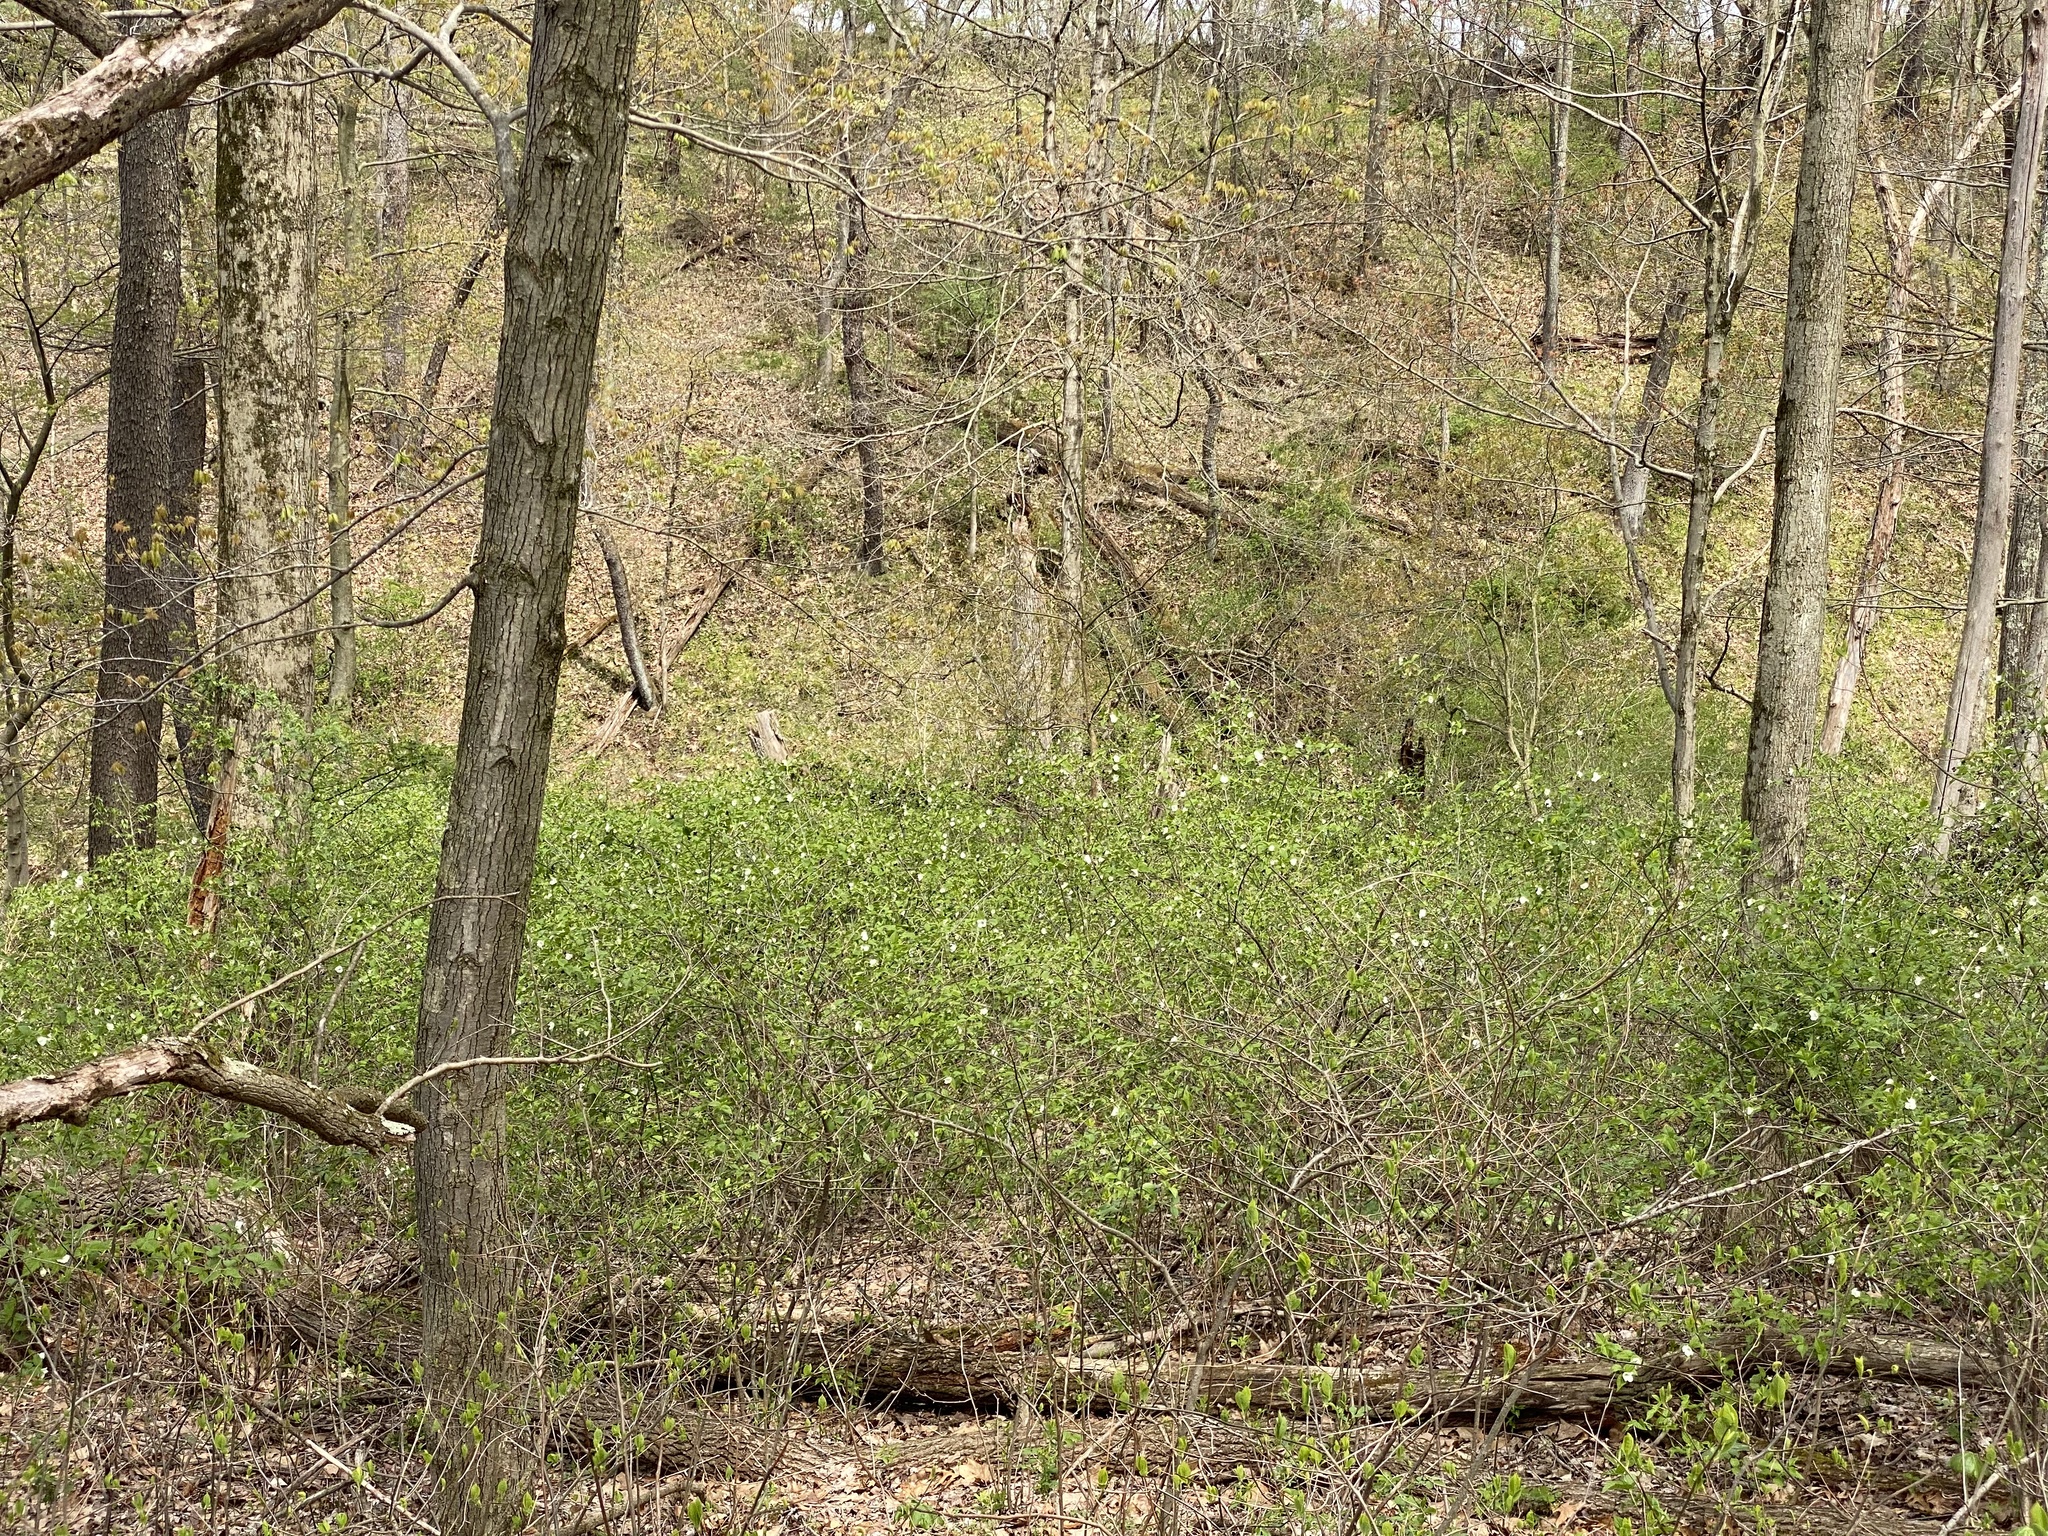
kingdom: Plantae
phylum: Tracheophyta
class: Magnoliopsida
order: Rosales
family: Rosaceae
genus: Rhodotypos
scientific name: Rhodotypos scandens
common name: Jetbead
